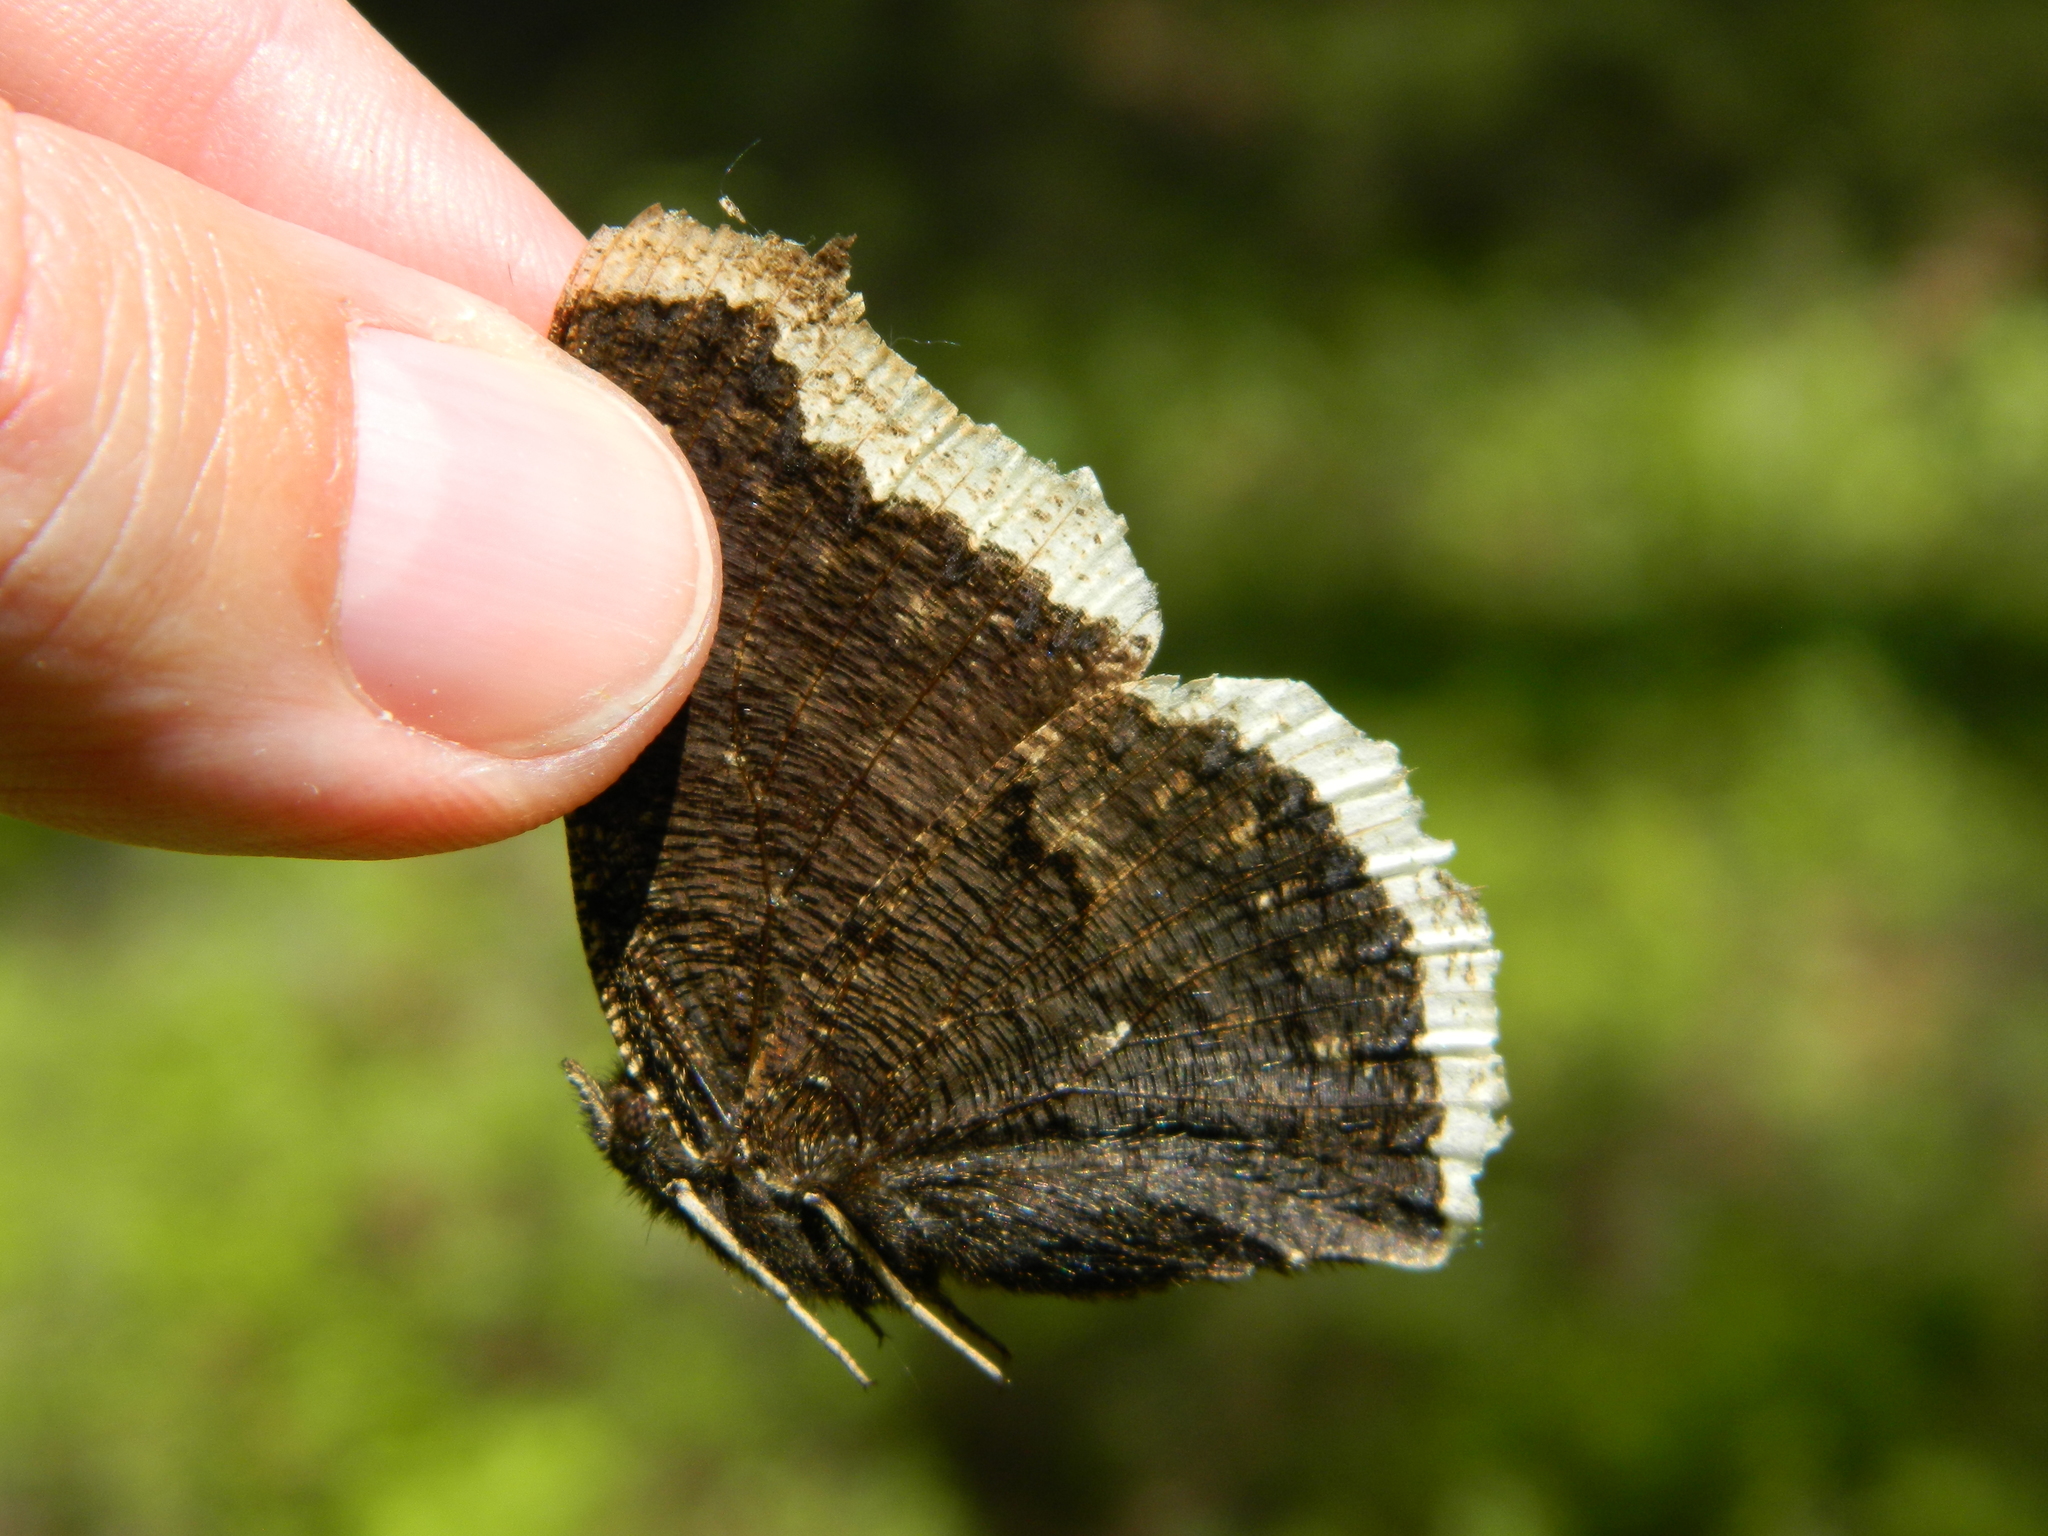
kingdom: Animalia
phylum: Arthropoda
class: Insecta
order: Lepidoptera
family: Nymphalidae
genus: Nymphalis
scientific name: Nymphalis antiopa
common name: Camberwell beauty
